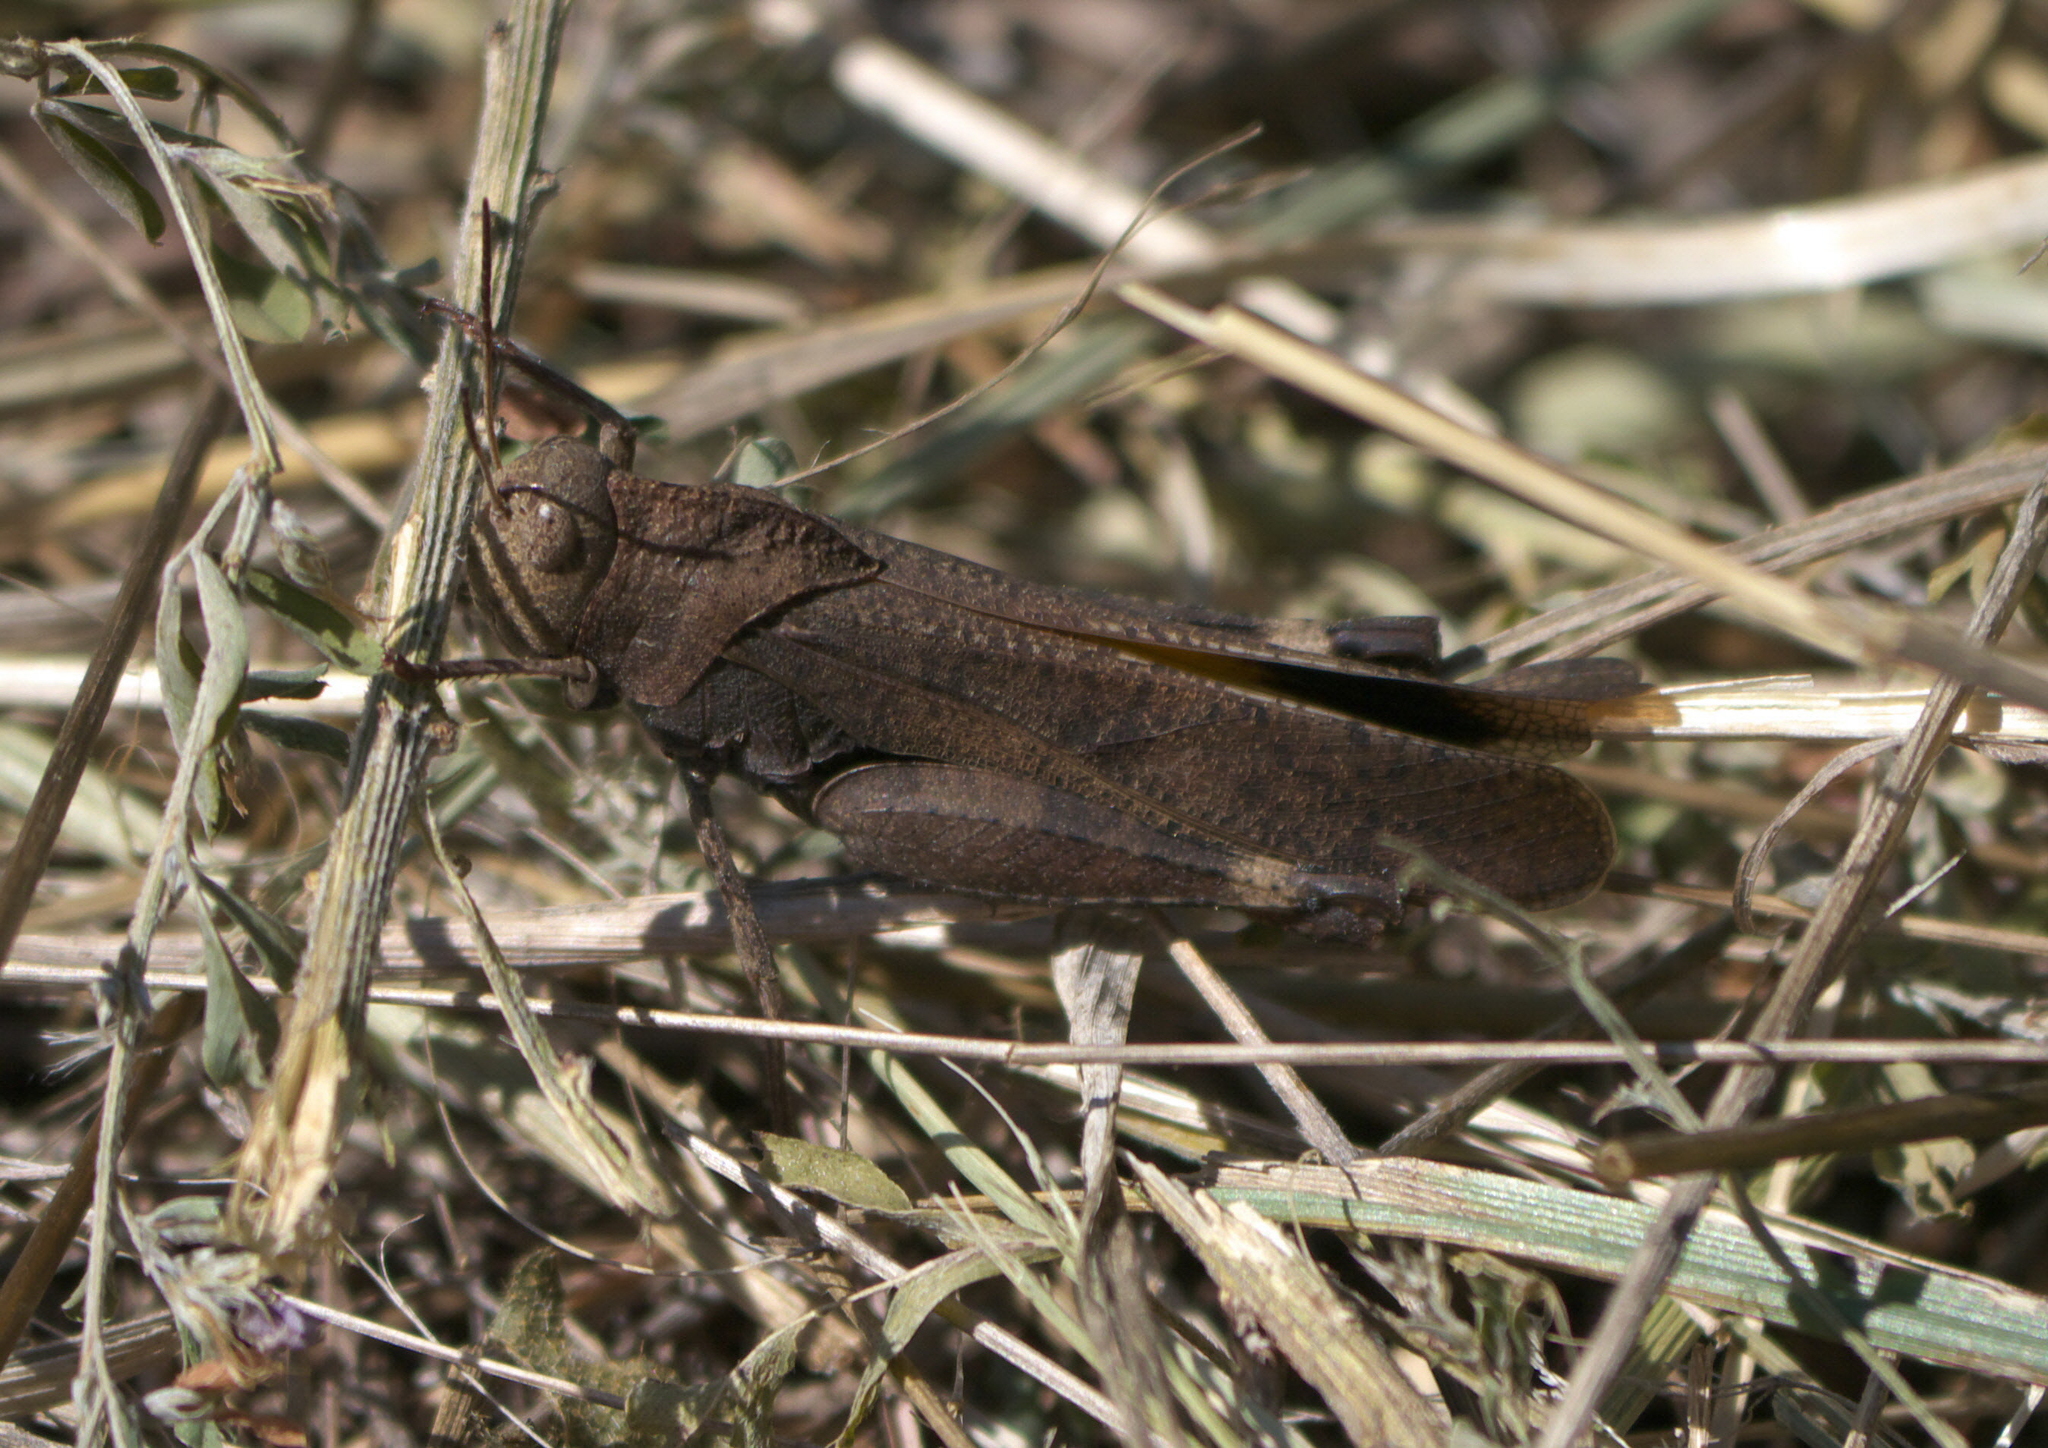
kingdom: Animalia
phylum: Arthropoda
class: Insecta
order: Orthoptera
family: Acrididae
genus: Arphia
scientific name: Arphia xanthoptera
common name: Autumn yellow-winged grasshopper
